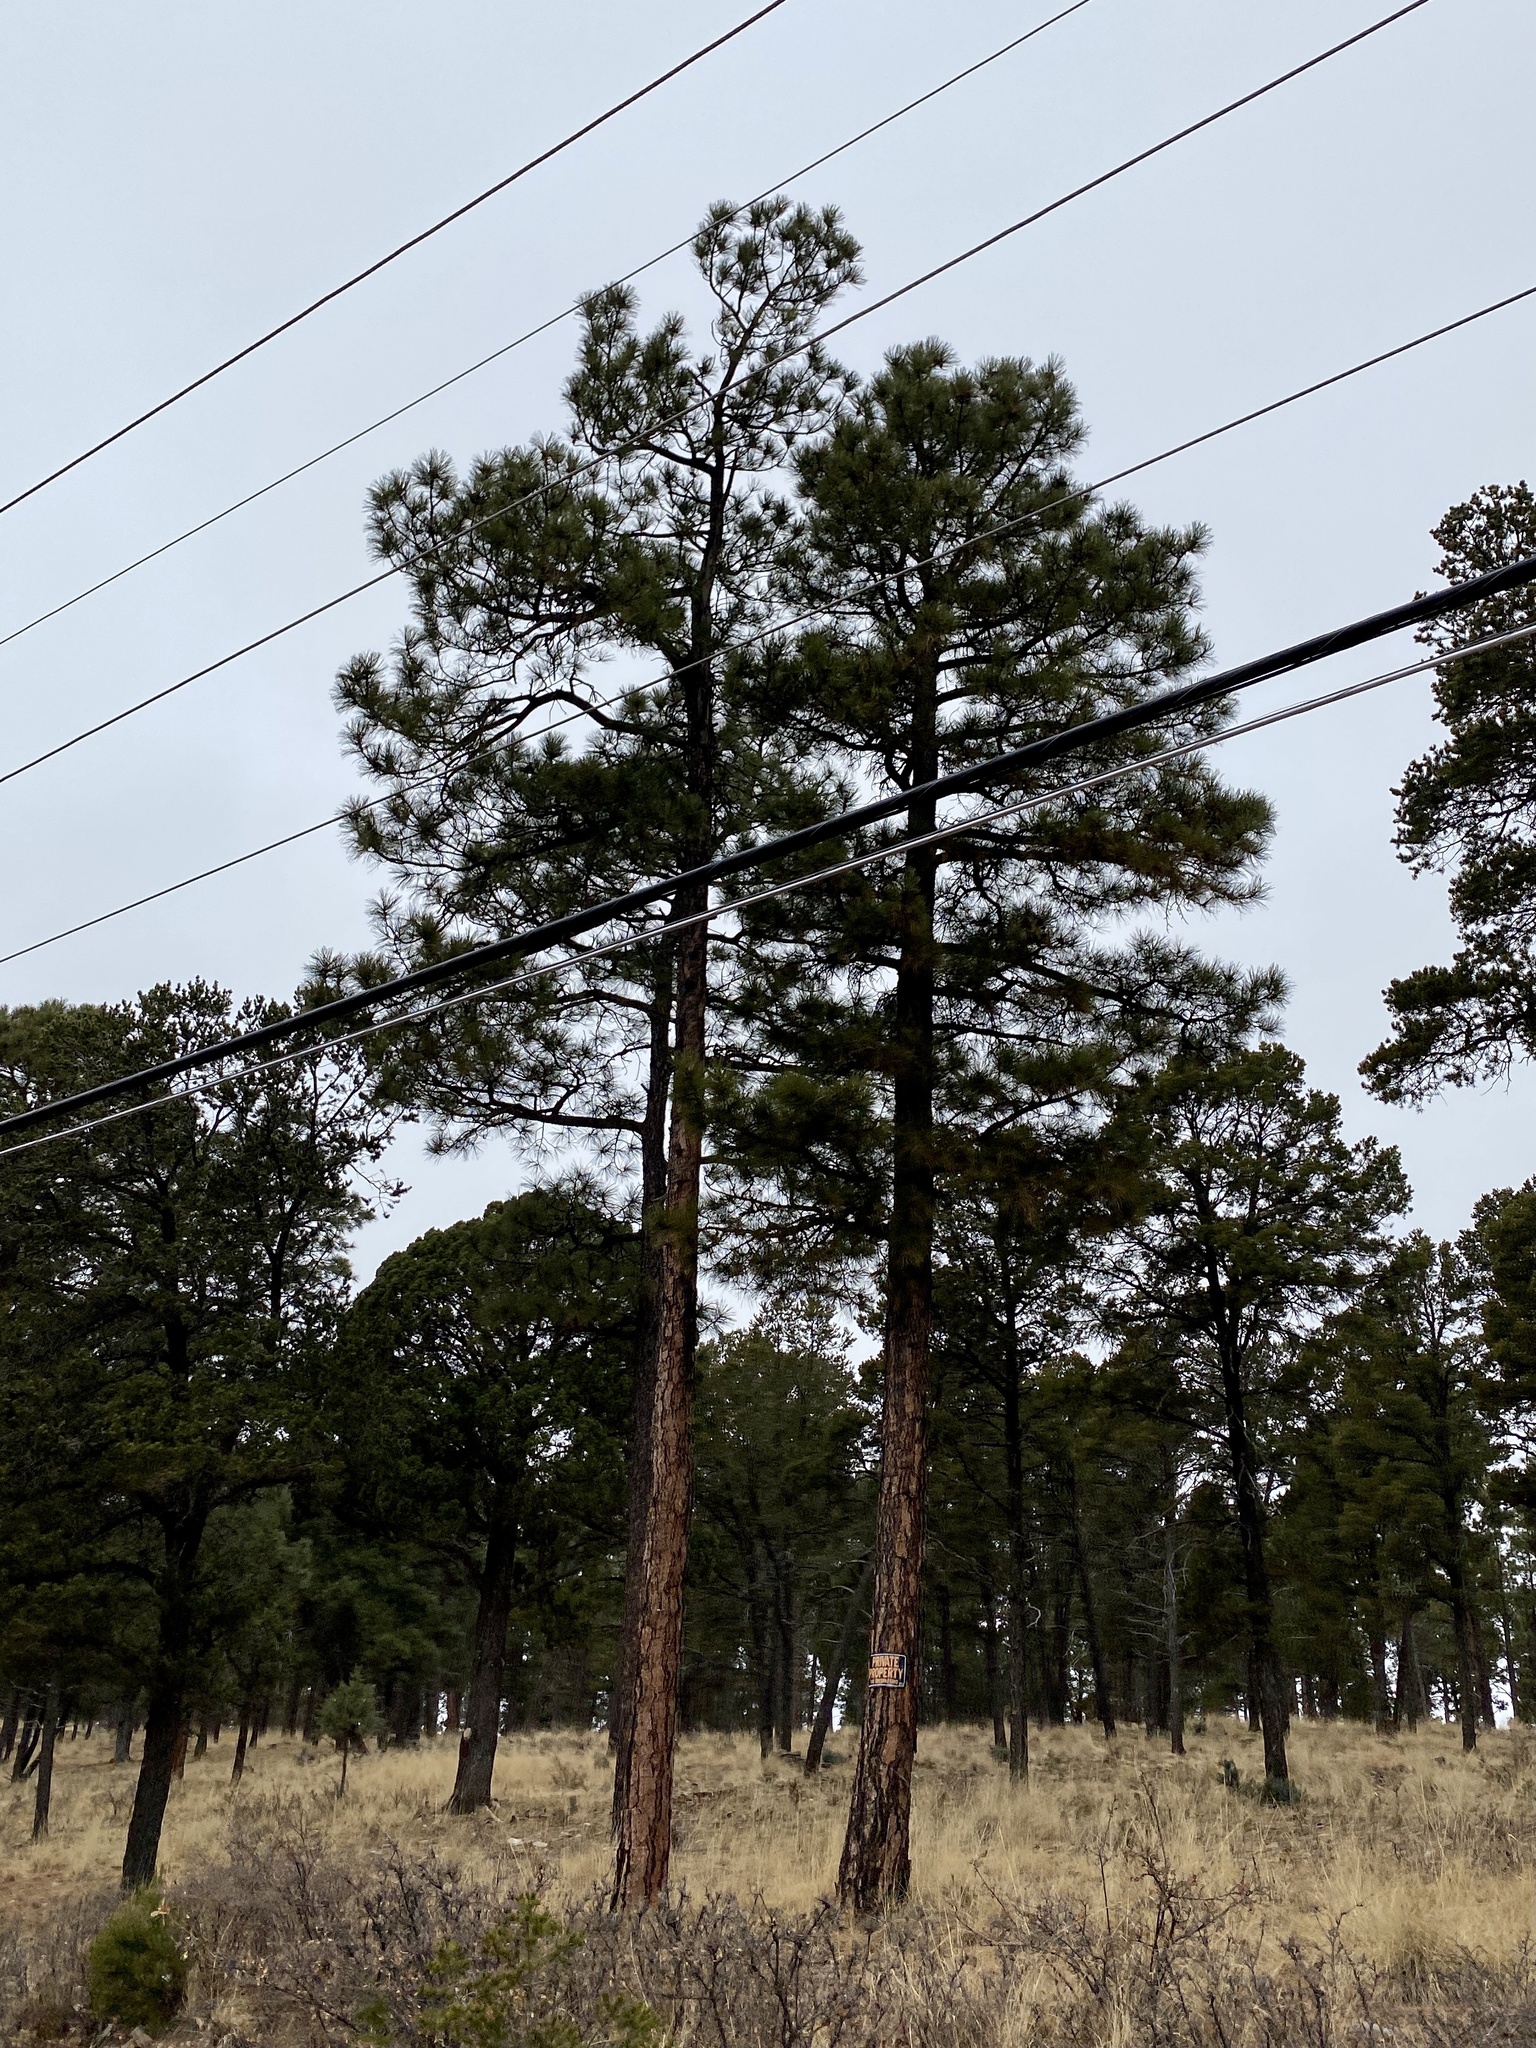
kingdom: Plantae
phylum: Tracheophyta
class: Pinopsida
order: Pinales
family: Pinaceae
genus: Pinus
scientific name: Pinus ponderosa
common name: Western yellow-pine
